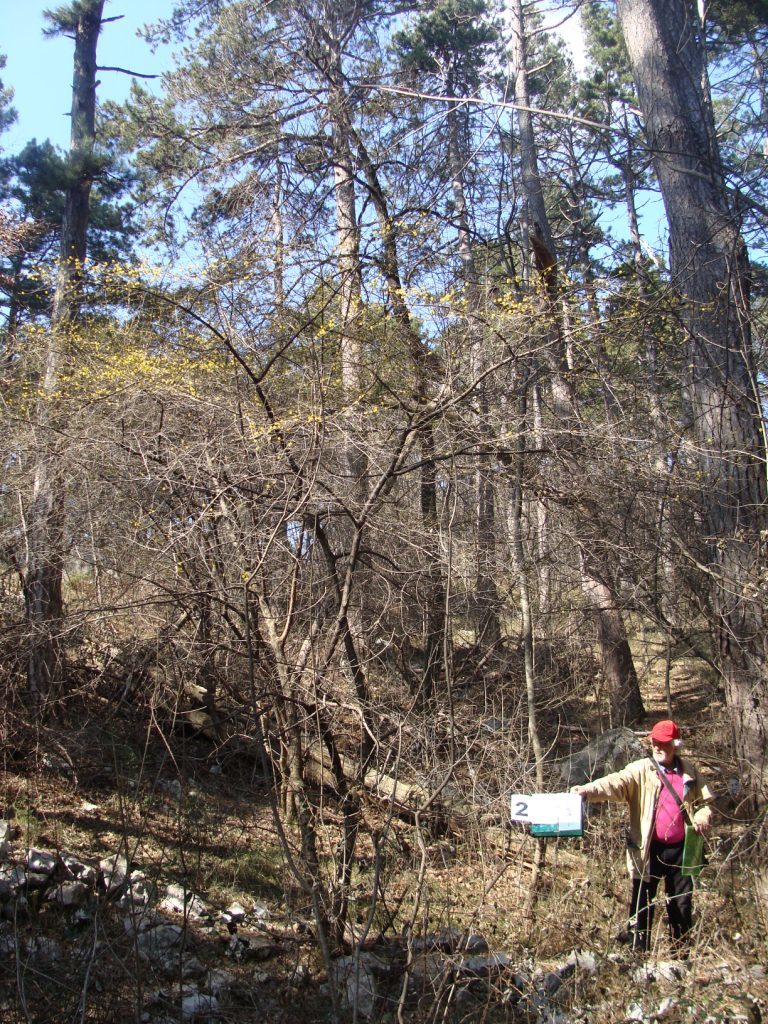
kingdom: Plantae
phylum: Tracheophyta
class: Magnoliopsida
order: Cornales
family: Cornaceae
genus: Cornus
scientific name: Cornus mas
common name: Cornelian-cherry
